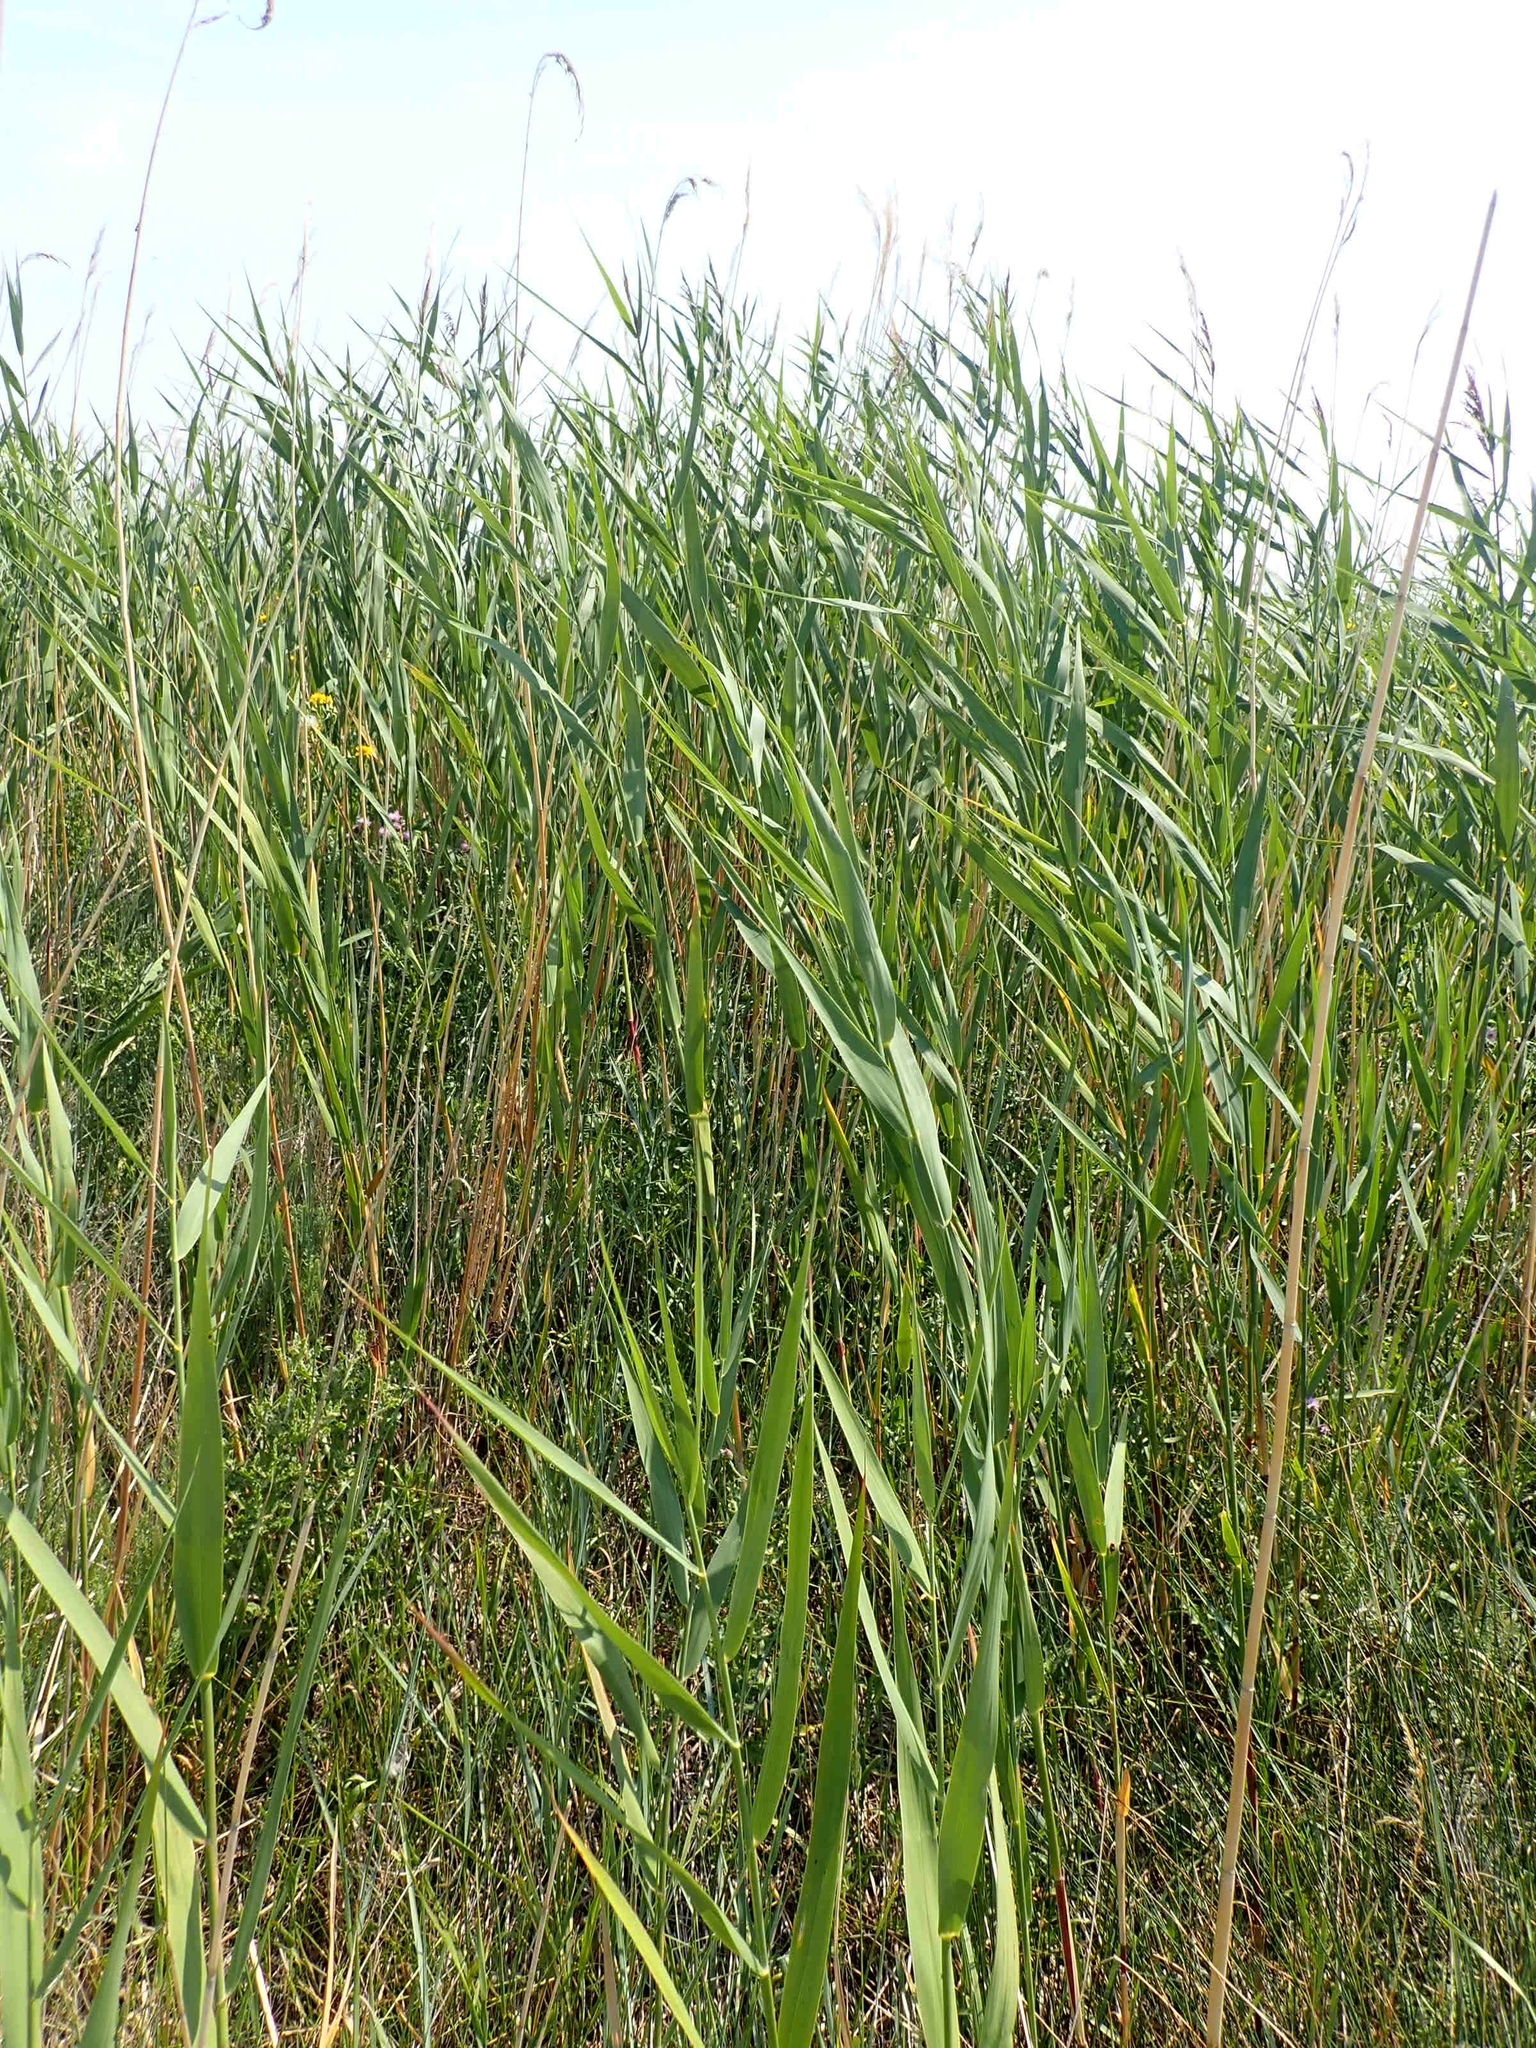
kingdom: Plantae
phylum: Tracheophyta
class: Liliopsida
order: Poales
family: Poaceae
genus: Phragmites
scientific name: Phragmites australis
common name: Common reed
